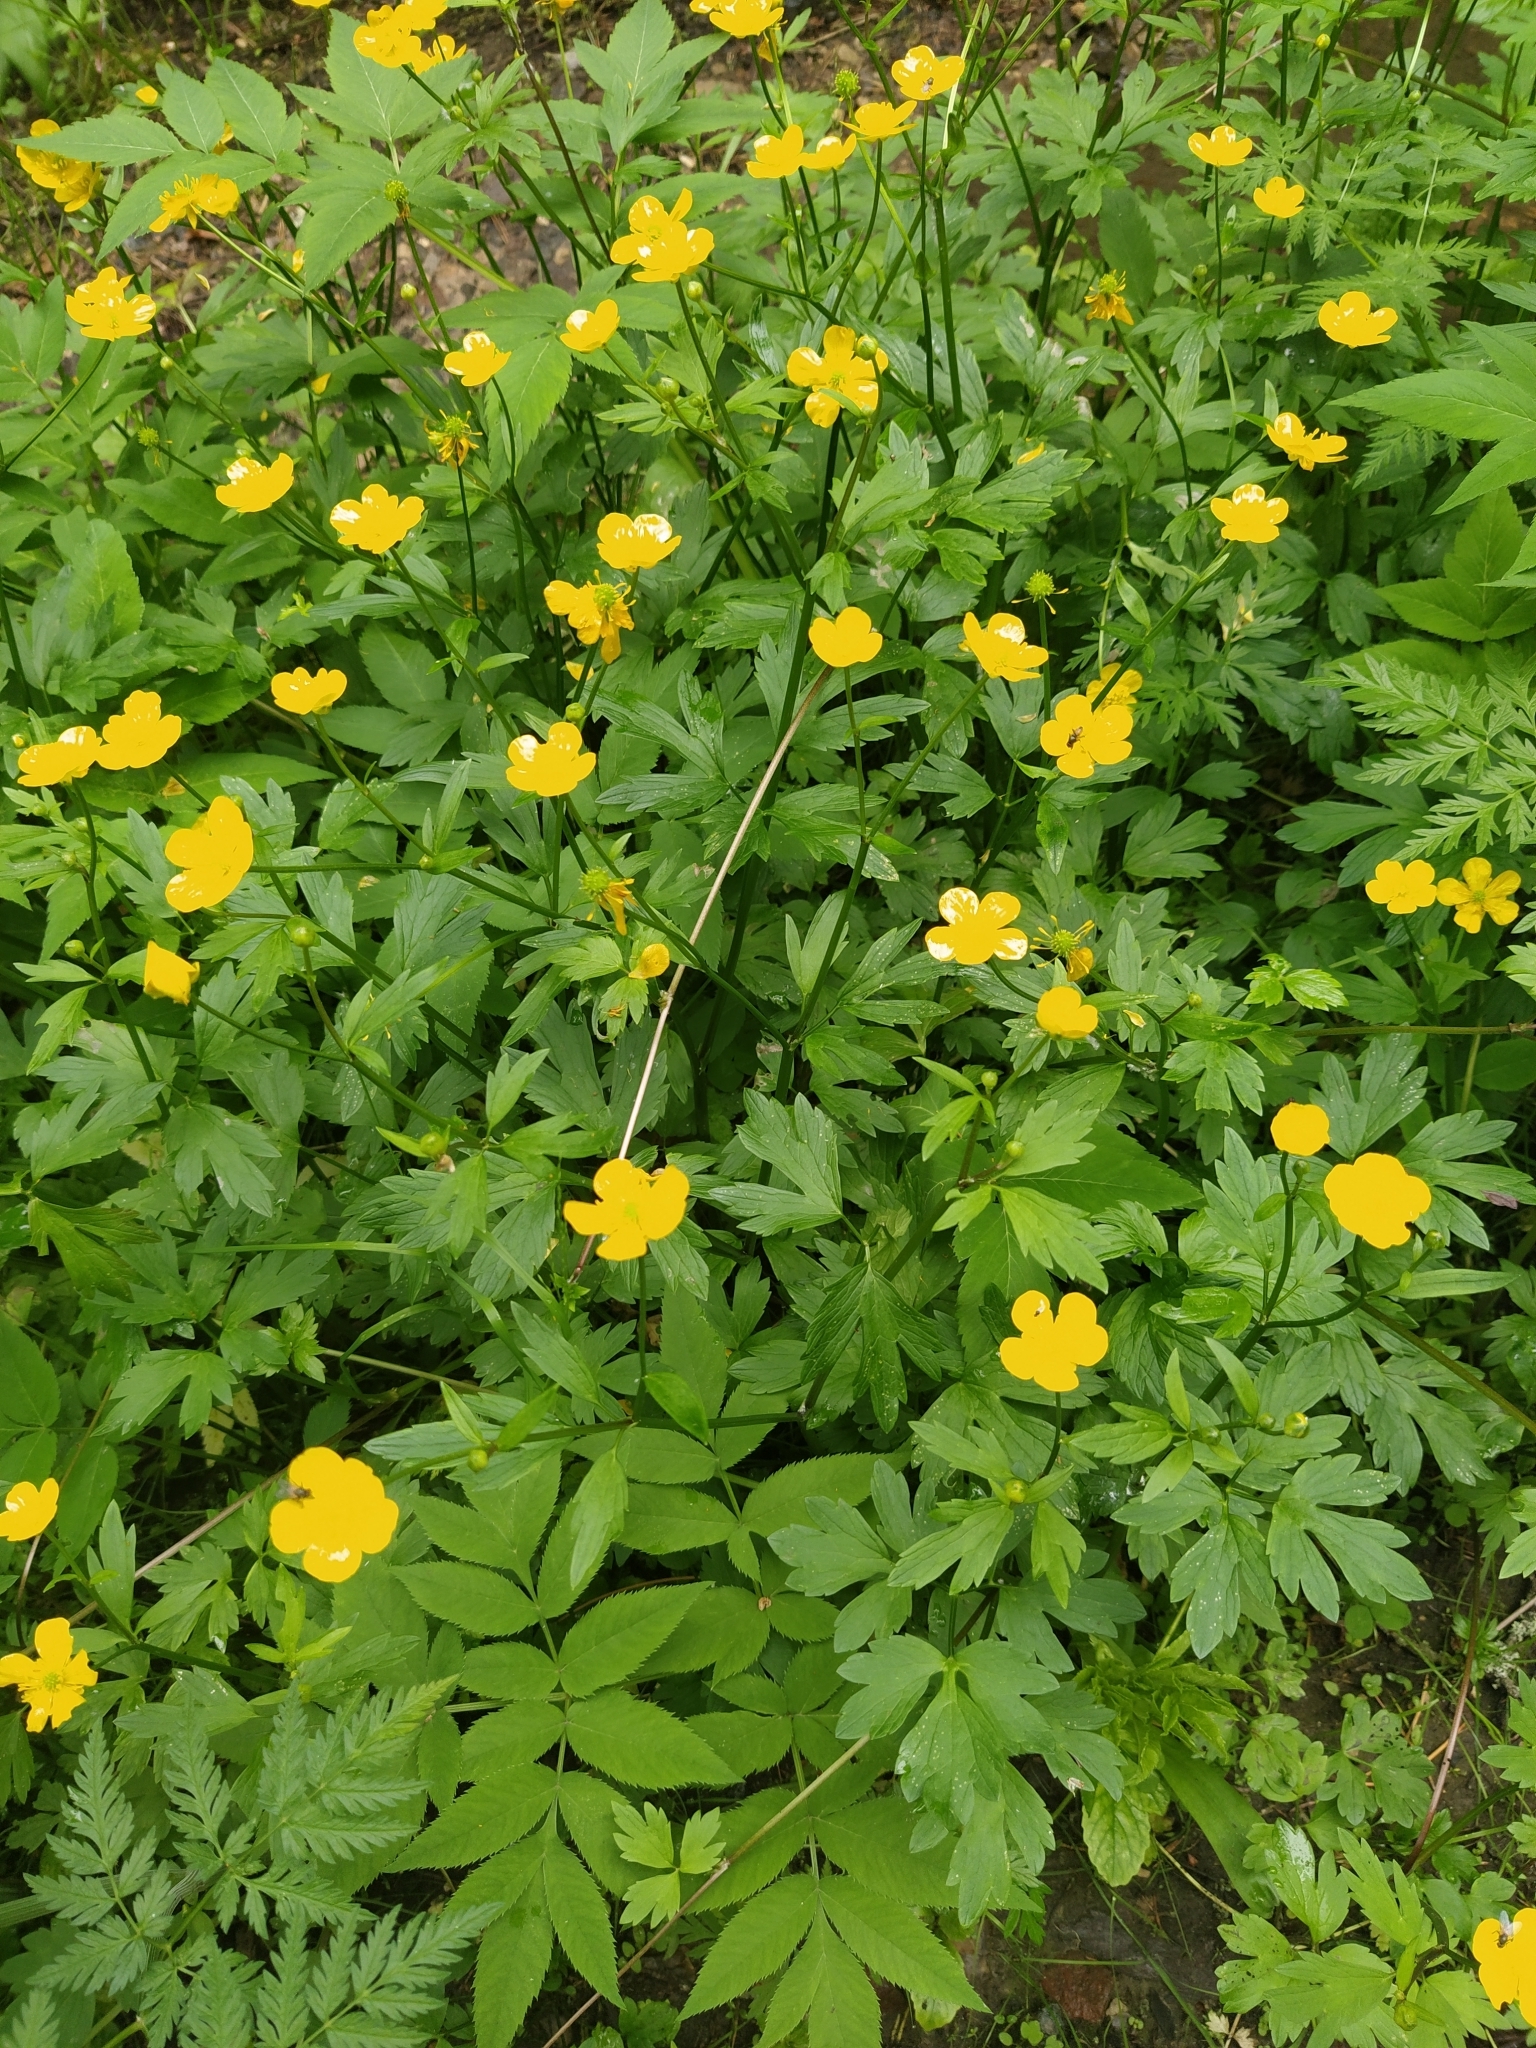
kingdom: Plantae
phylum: Tracheophyta
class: Magnoliopsida
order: Ranunculales
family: Ranunculaceae
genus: Ranunculus
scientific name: Ranunculus repens
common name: Creeping buttercup
